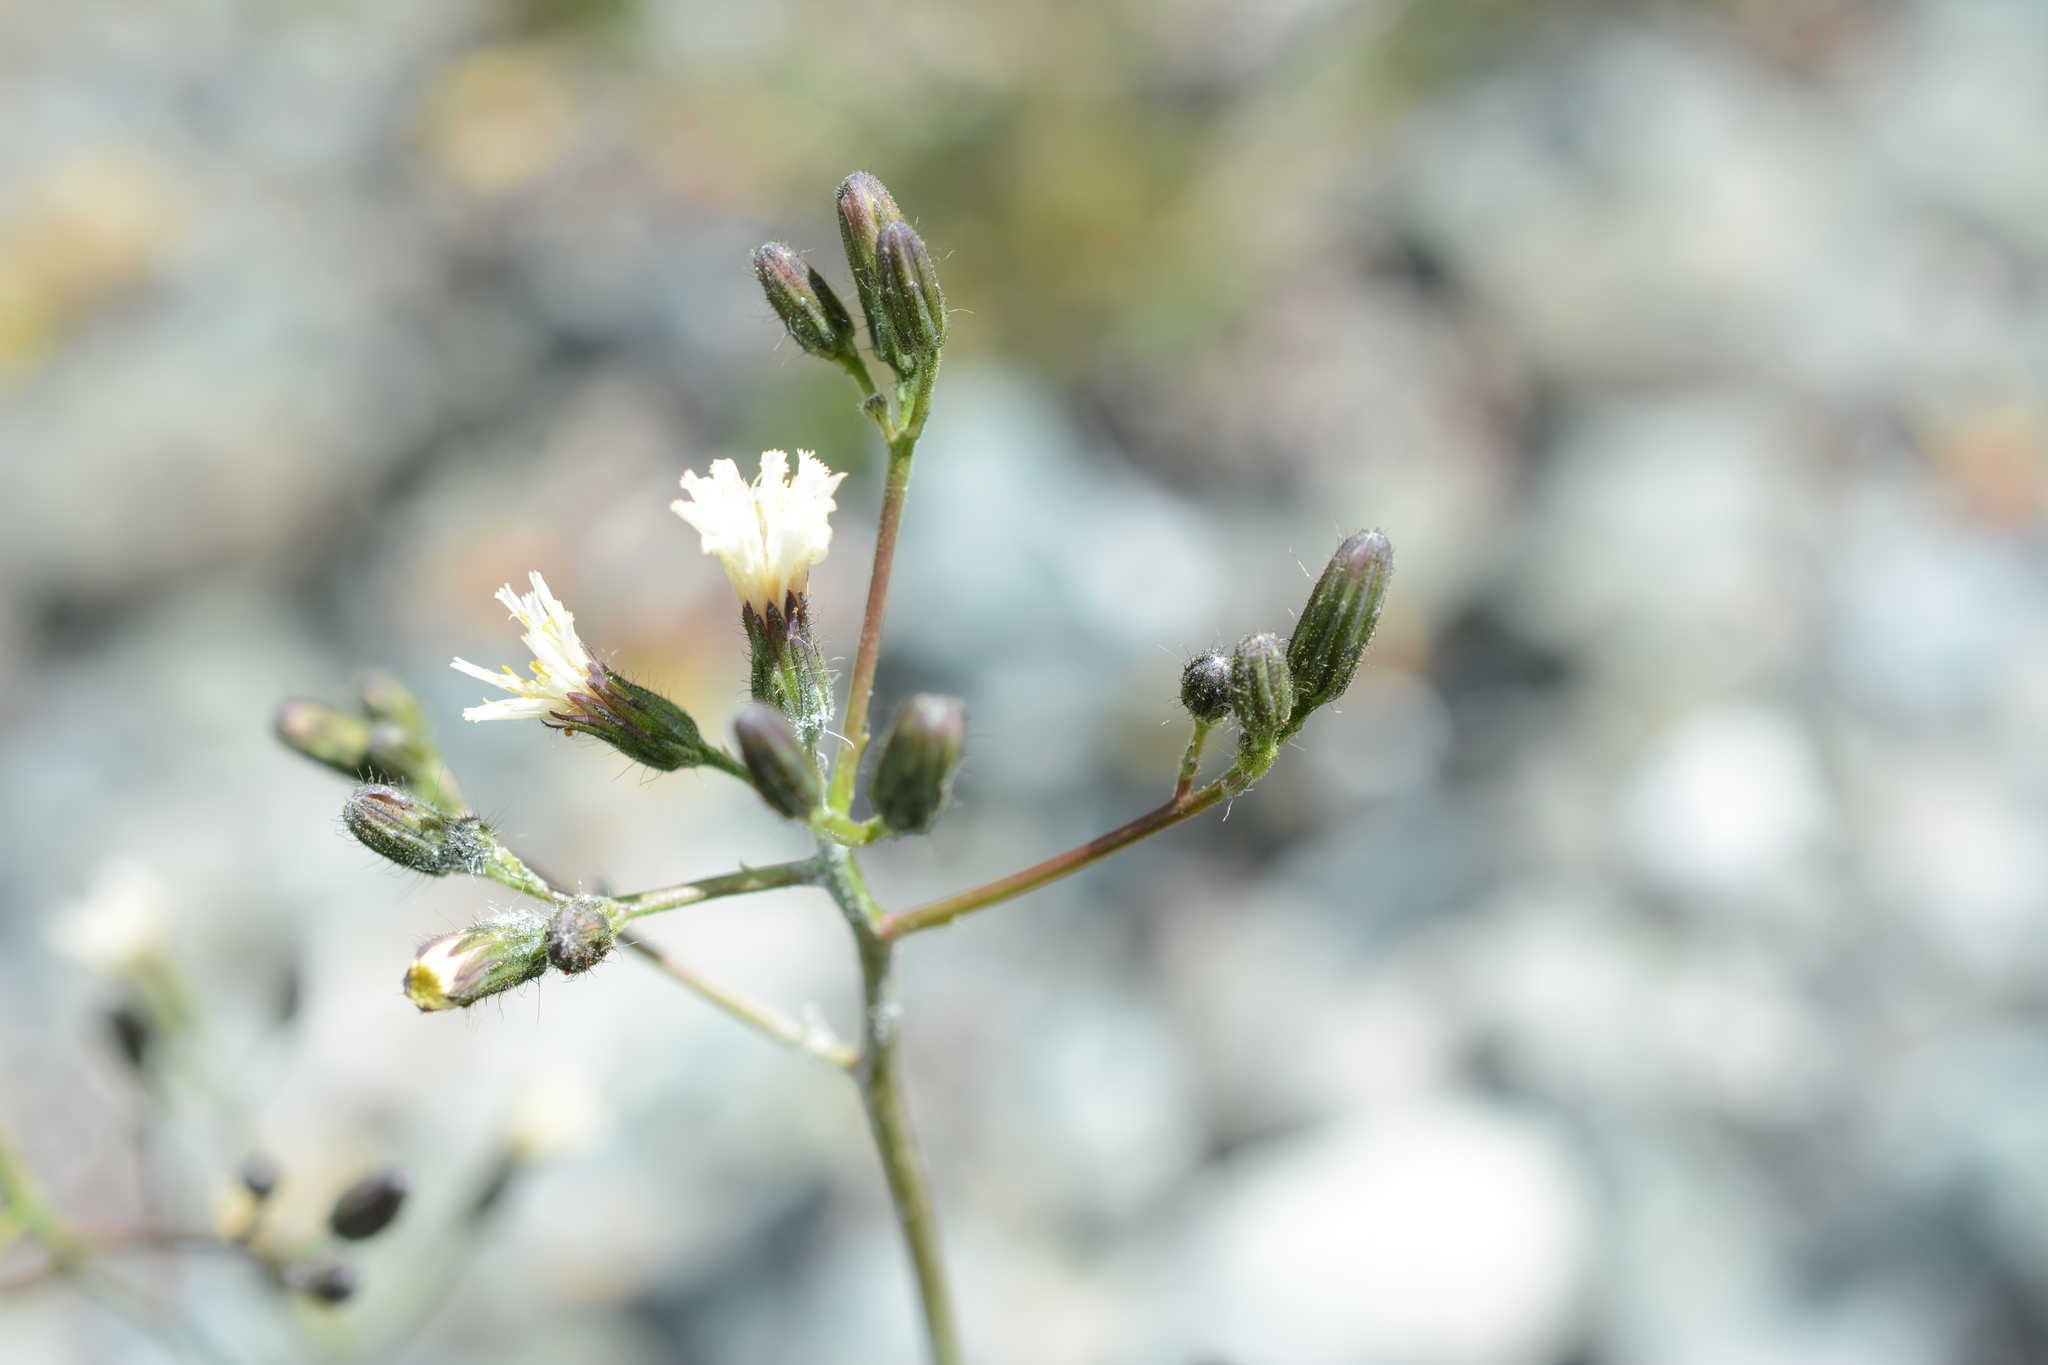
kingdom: Plantae
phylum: Tracheophyta
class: Magnoliopsida
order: Asterales
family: Asteraceae
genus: Hieracium
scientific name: Hieracium albiflorum
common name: White hawkweed
